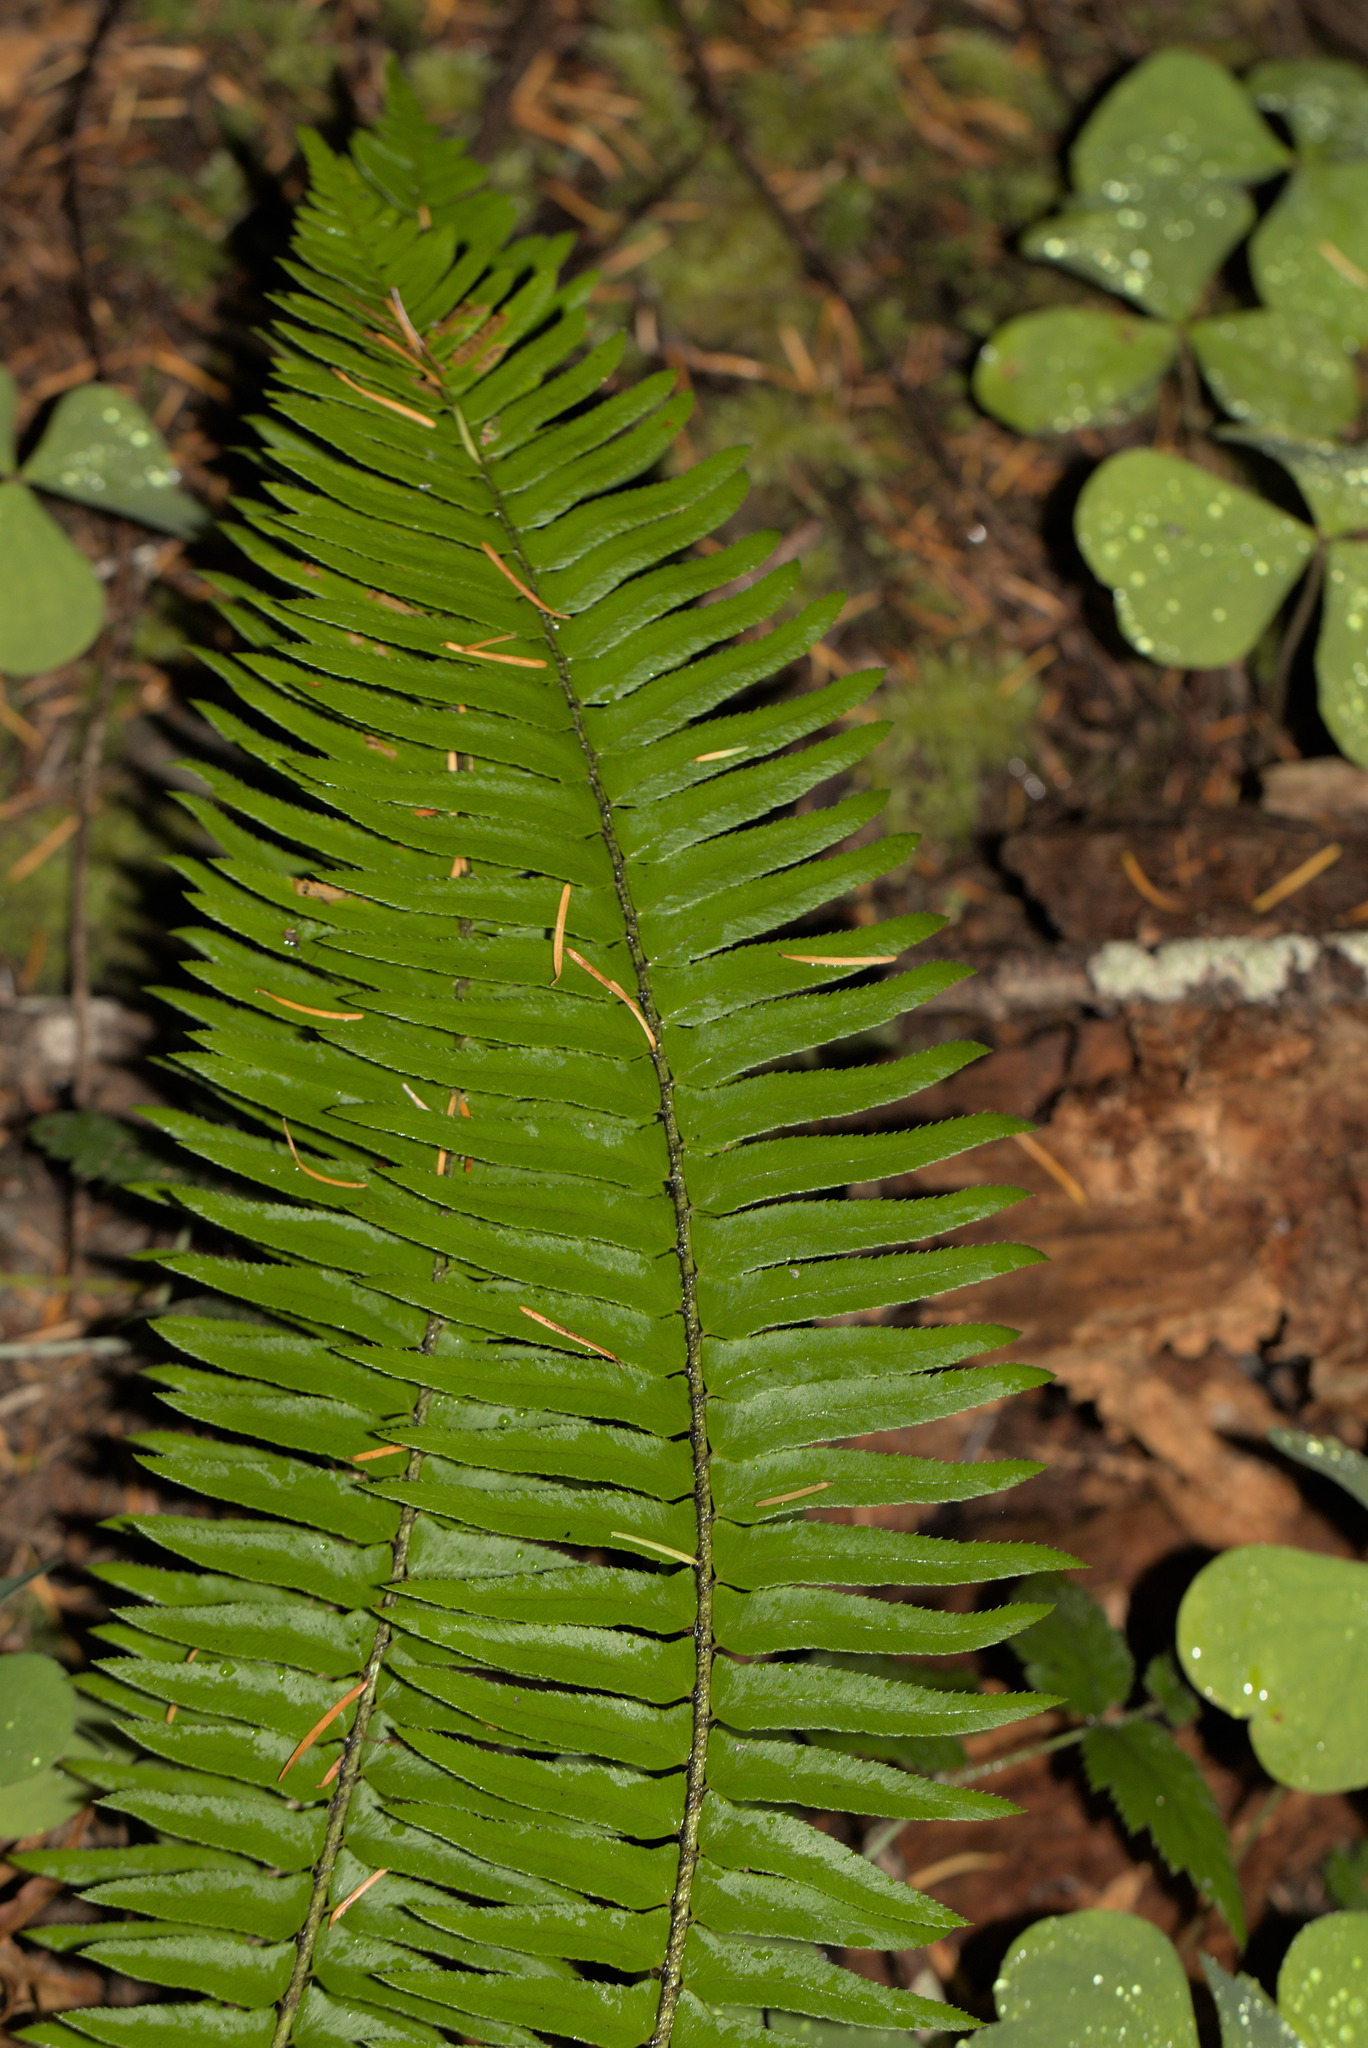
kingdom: Plantae
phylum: Tracheophyta
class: Polypodiopsida
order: Polypodiales
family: Dryopteridaceae
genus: Polystichum
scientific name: Polystichum munitum
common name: Western sword-fern
